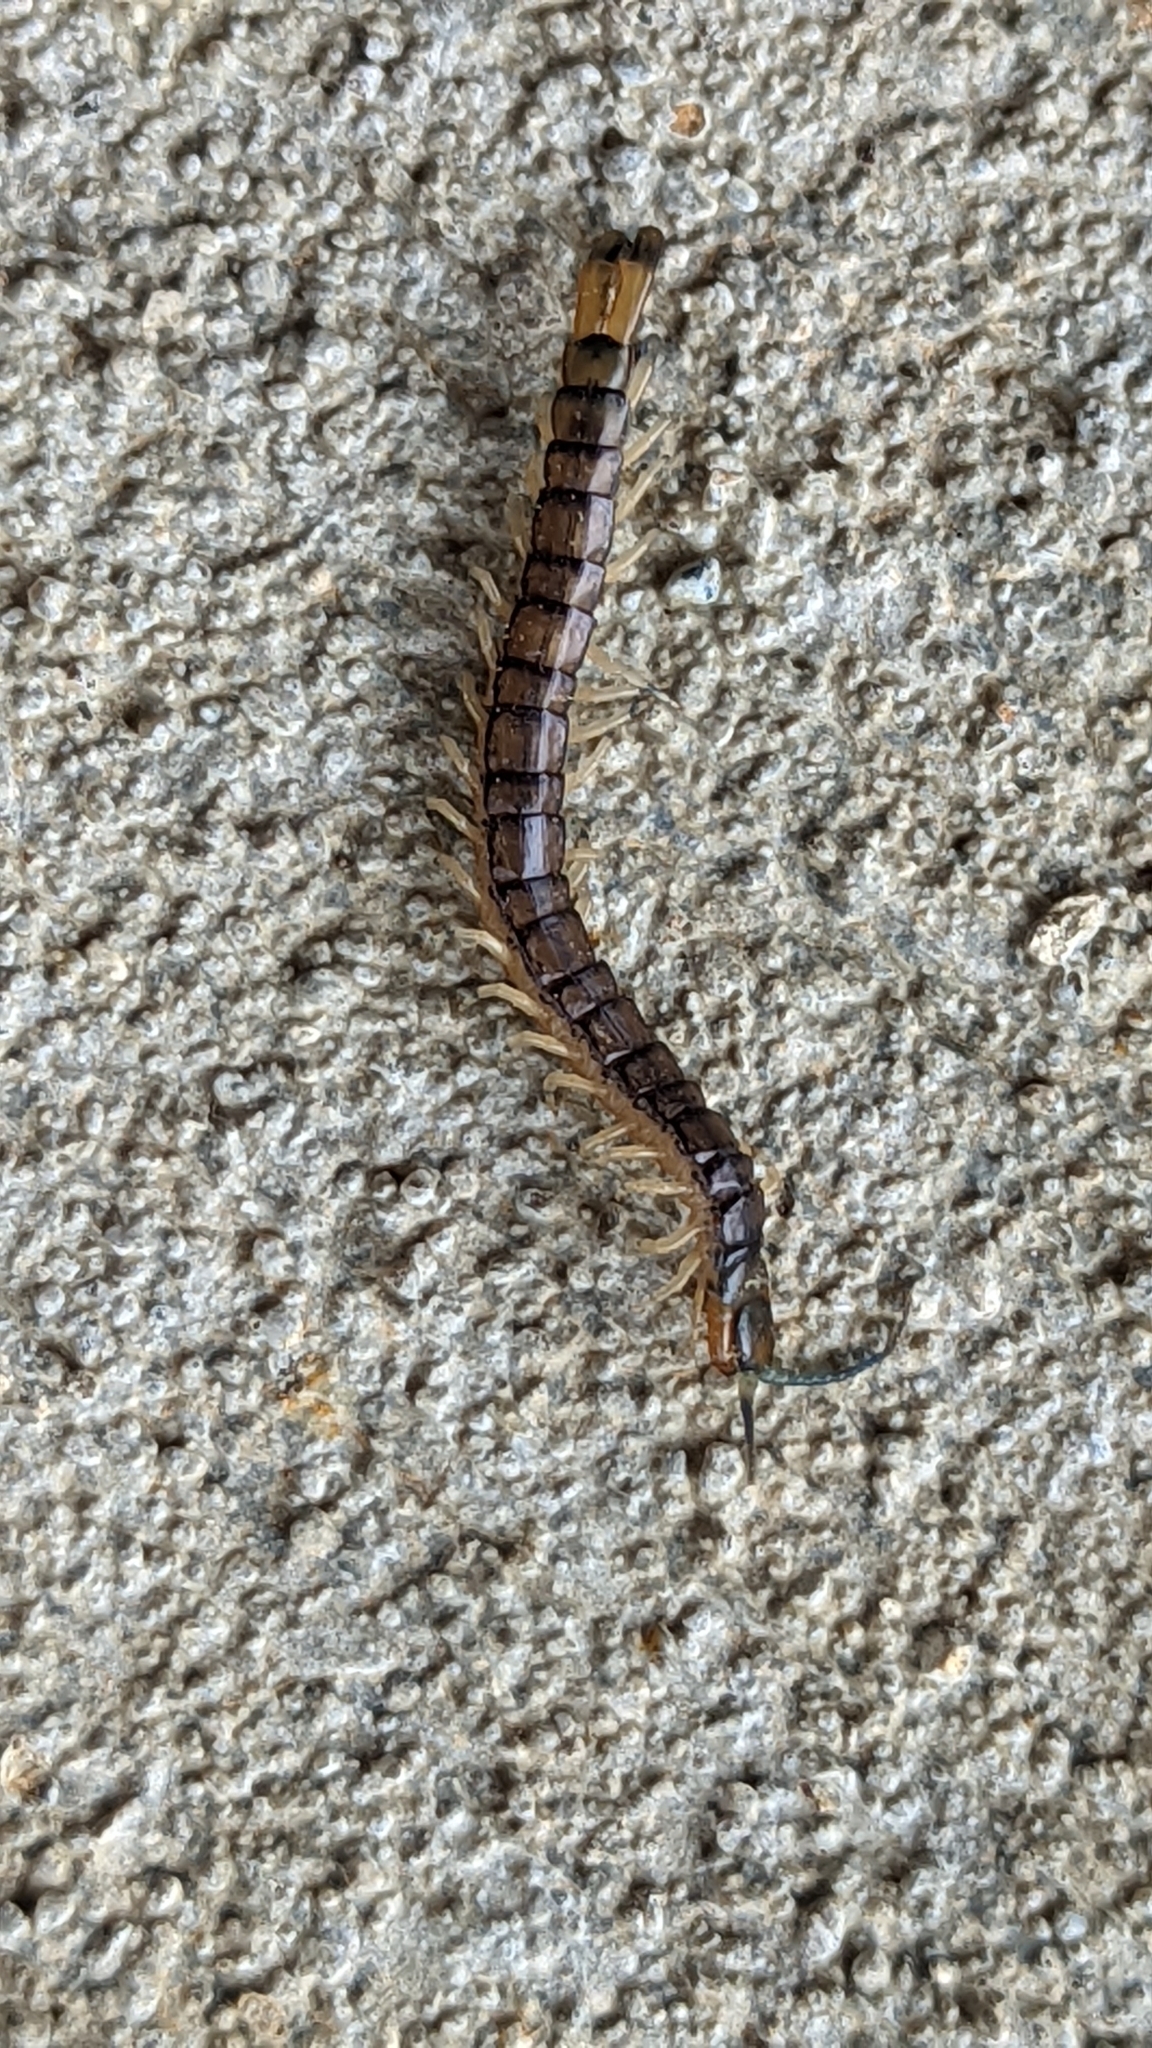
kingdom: Animalia
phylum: Arthropoda
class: Chilopoda
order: Scolopendromorpha
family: Scolopendridae
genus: Hemiscolopendra
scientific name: Hemiscolopendra marginata
